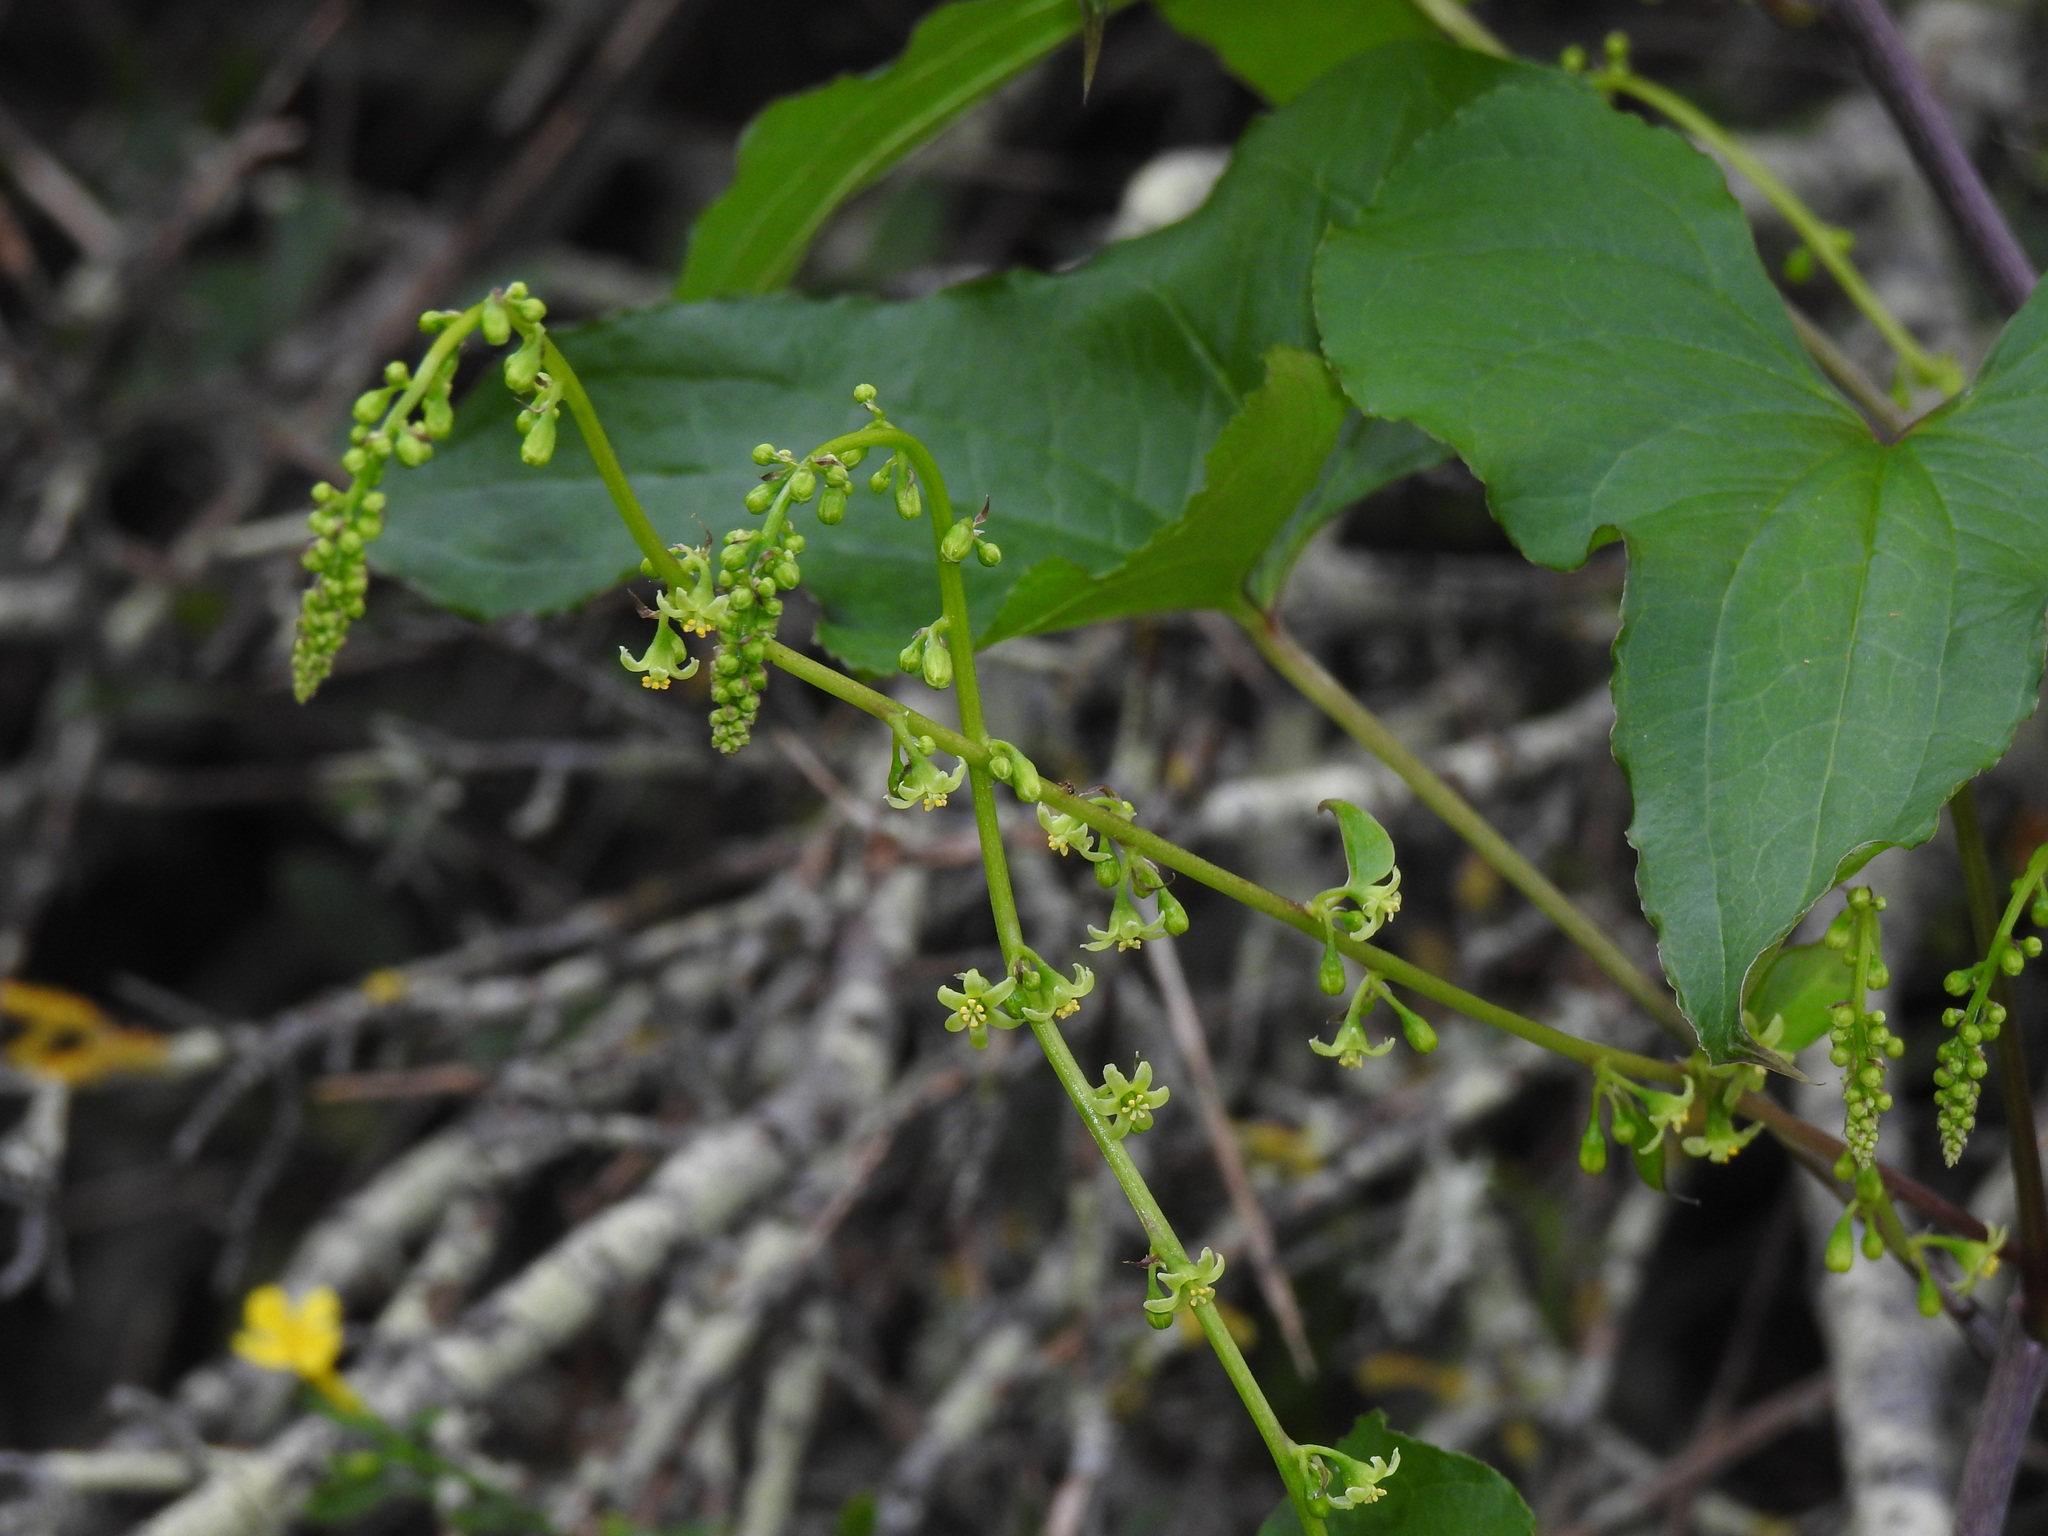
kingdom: Plantae
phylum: Tracheophyta
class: Liliopsida
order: Dioscoreales
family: Dioscoreaceae
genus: Dioscorea
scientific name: Dioscorea communis
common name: Black-bindweed
